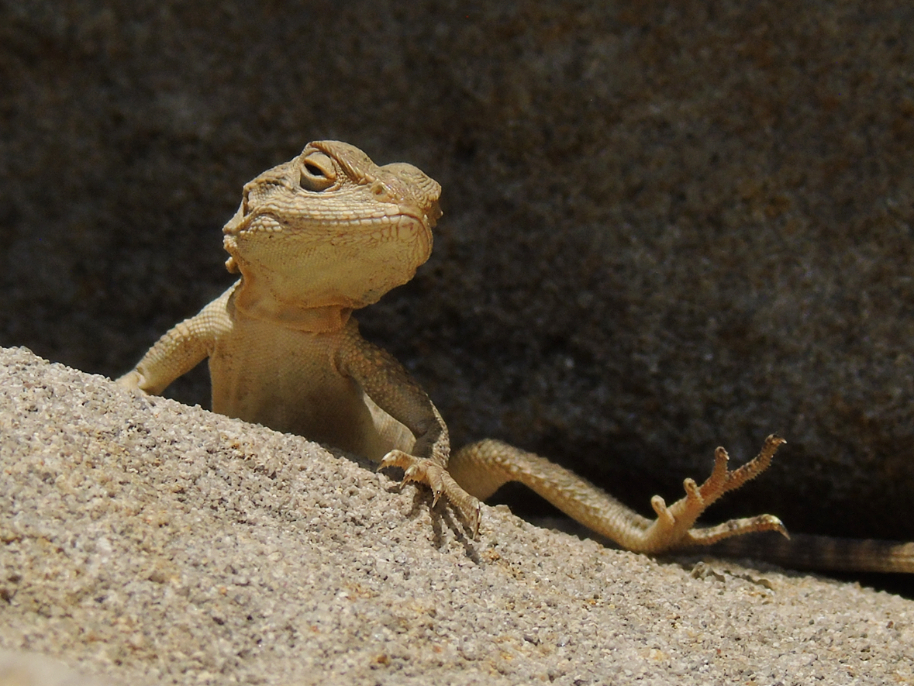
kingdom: Animalia
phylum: Chordata
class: Squamata
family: Agamidae
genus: Paralaudakia
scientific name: Paralaudakia caucasia
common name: Caucasian agama
